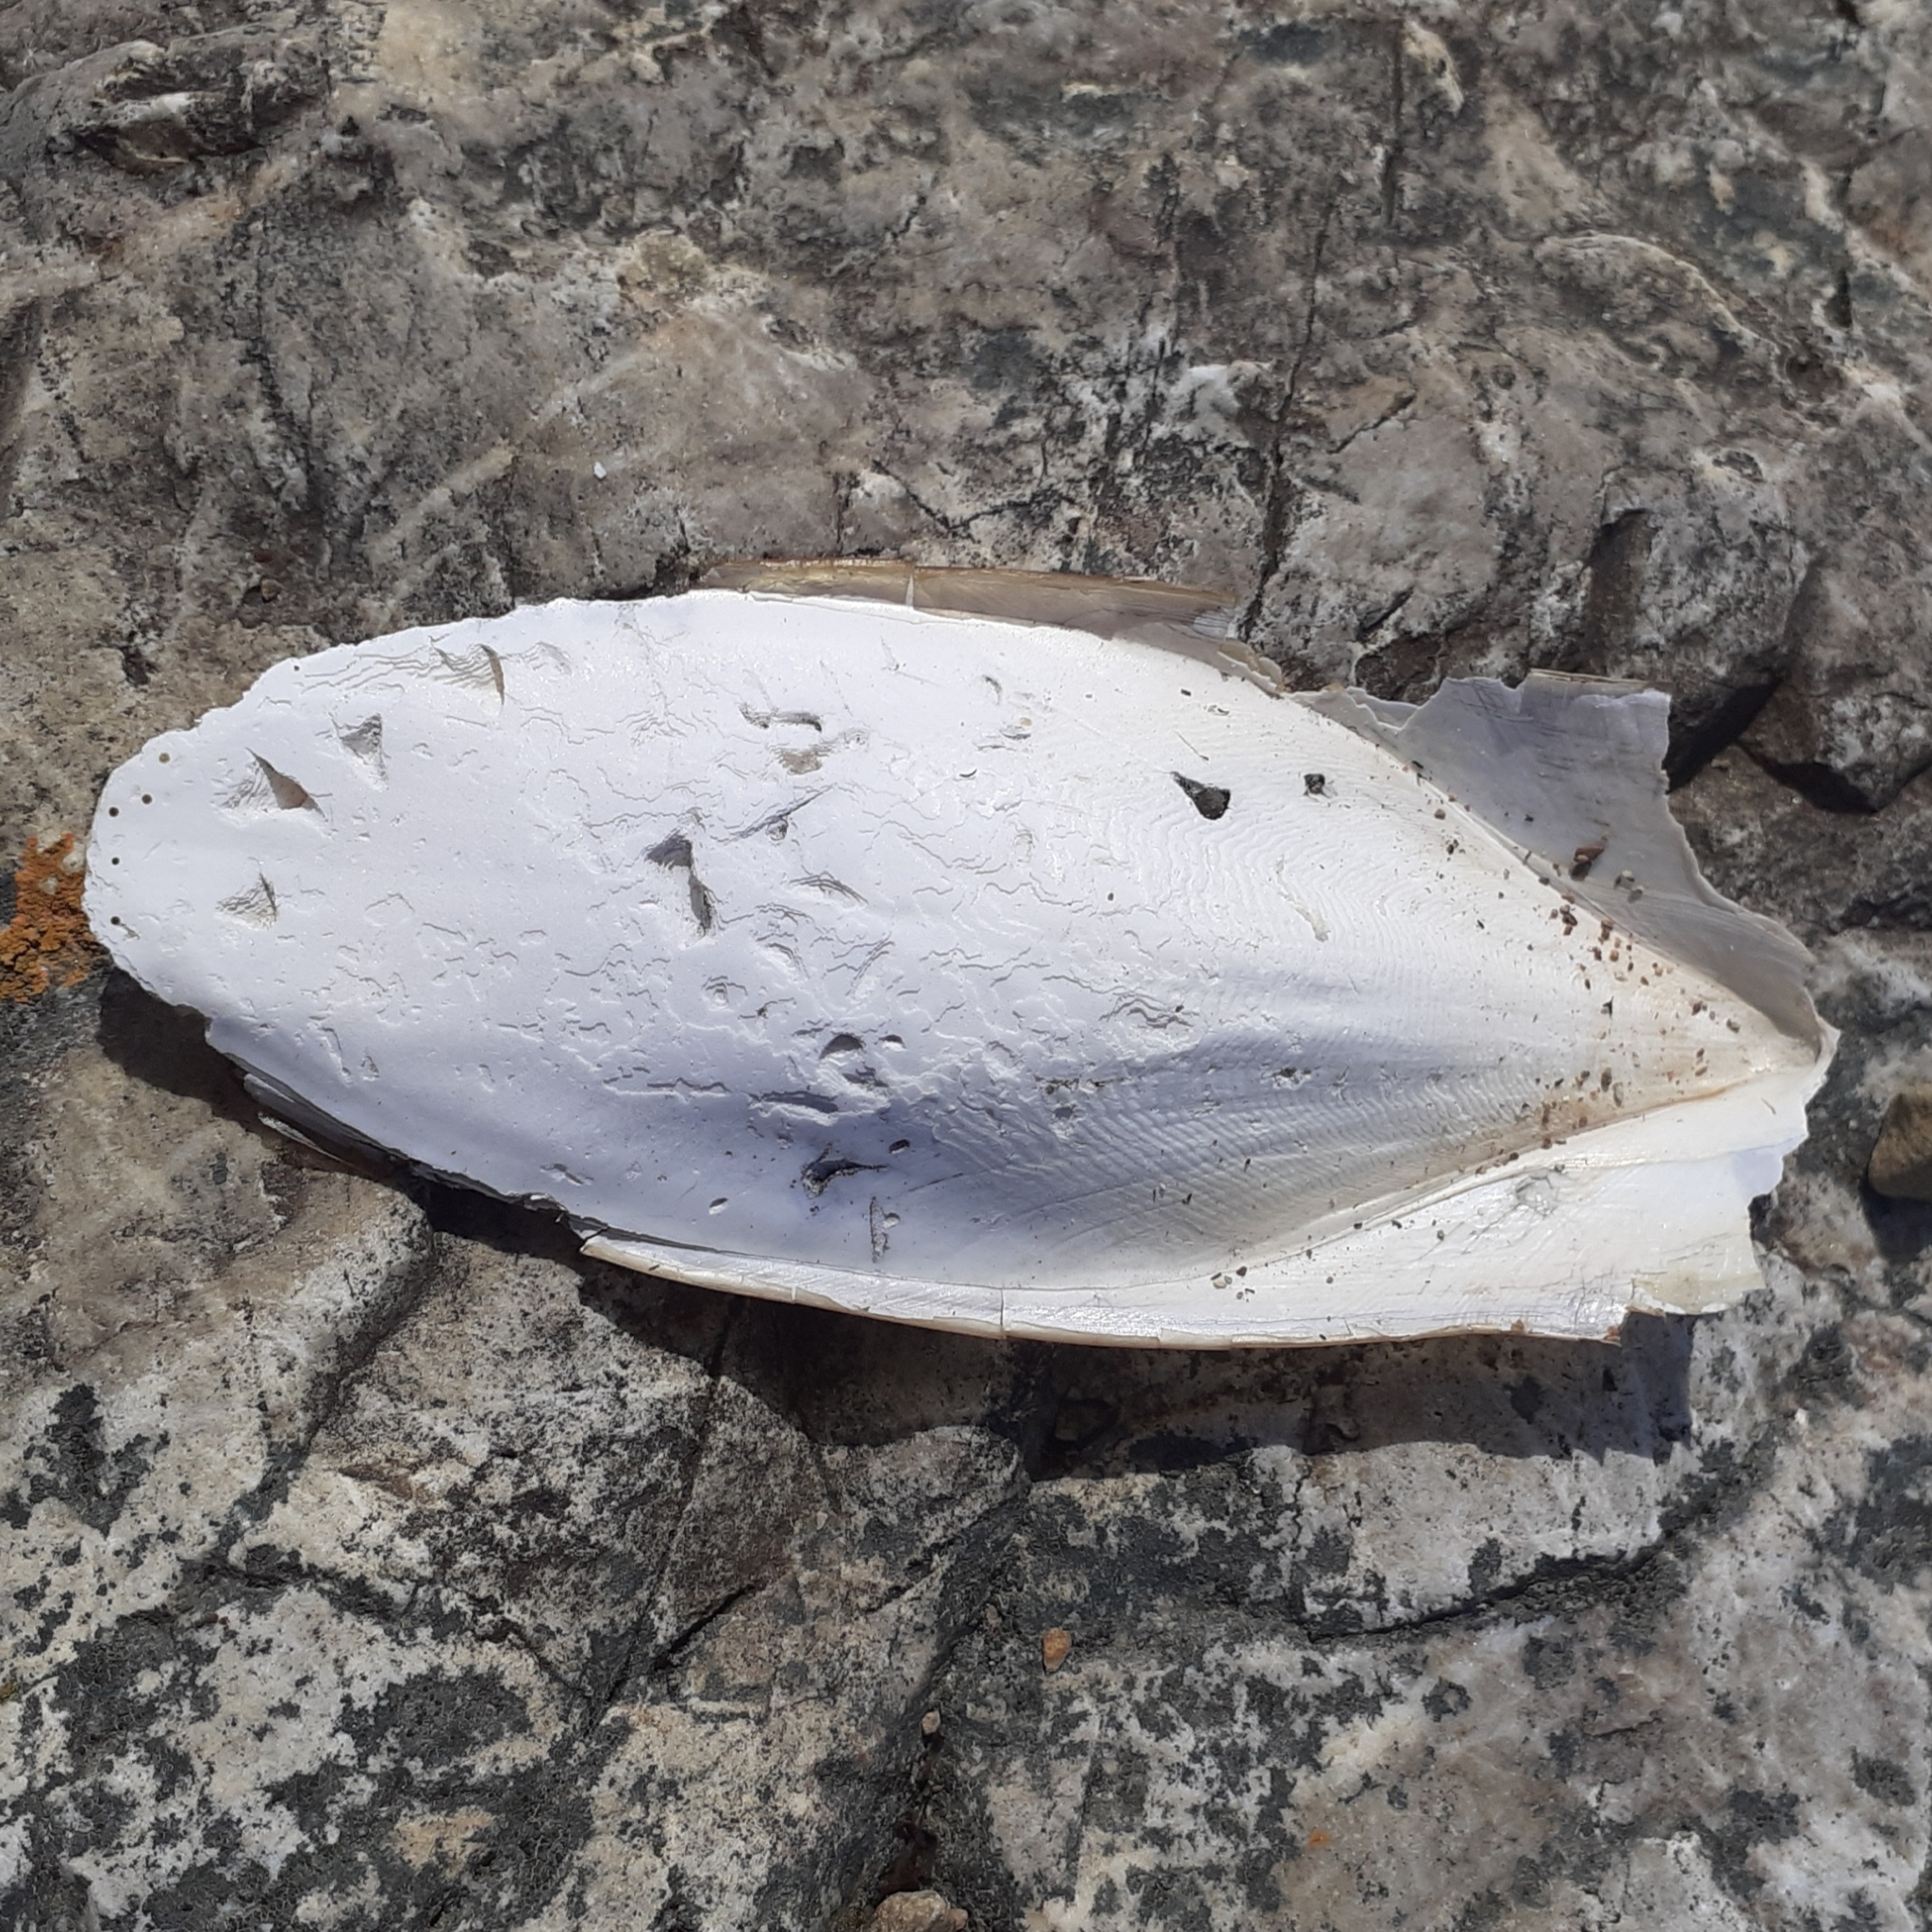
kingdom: Animalia
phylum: Mollusca
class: Cephalopoda
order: Sepiida
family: Sepiidae
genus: Sepia
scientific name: Sepia officinalis
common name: Common cuttlefish
